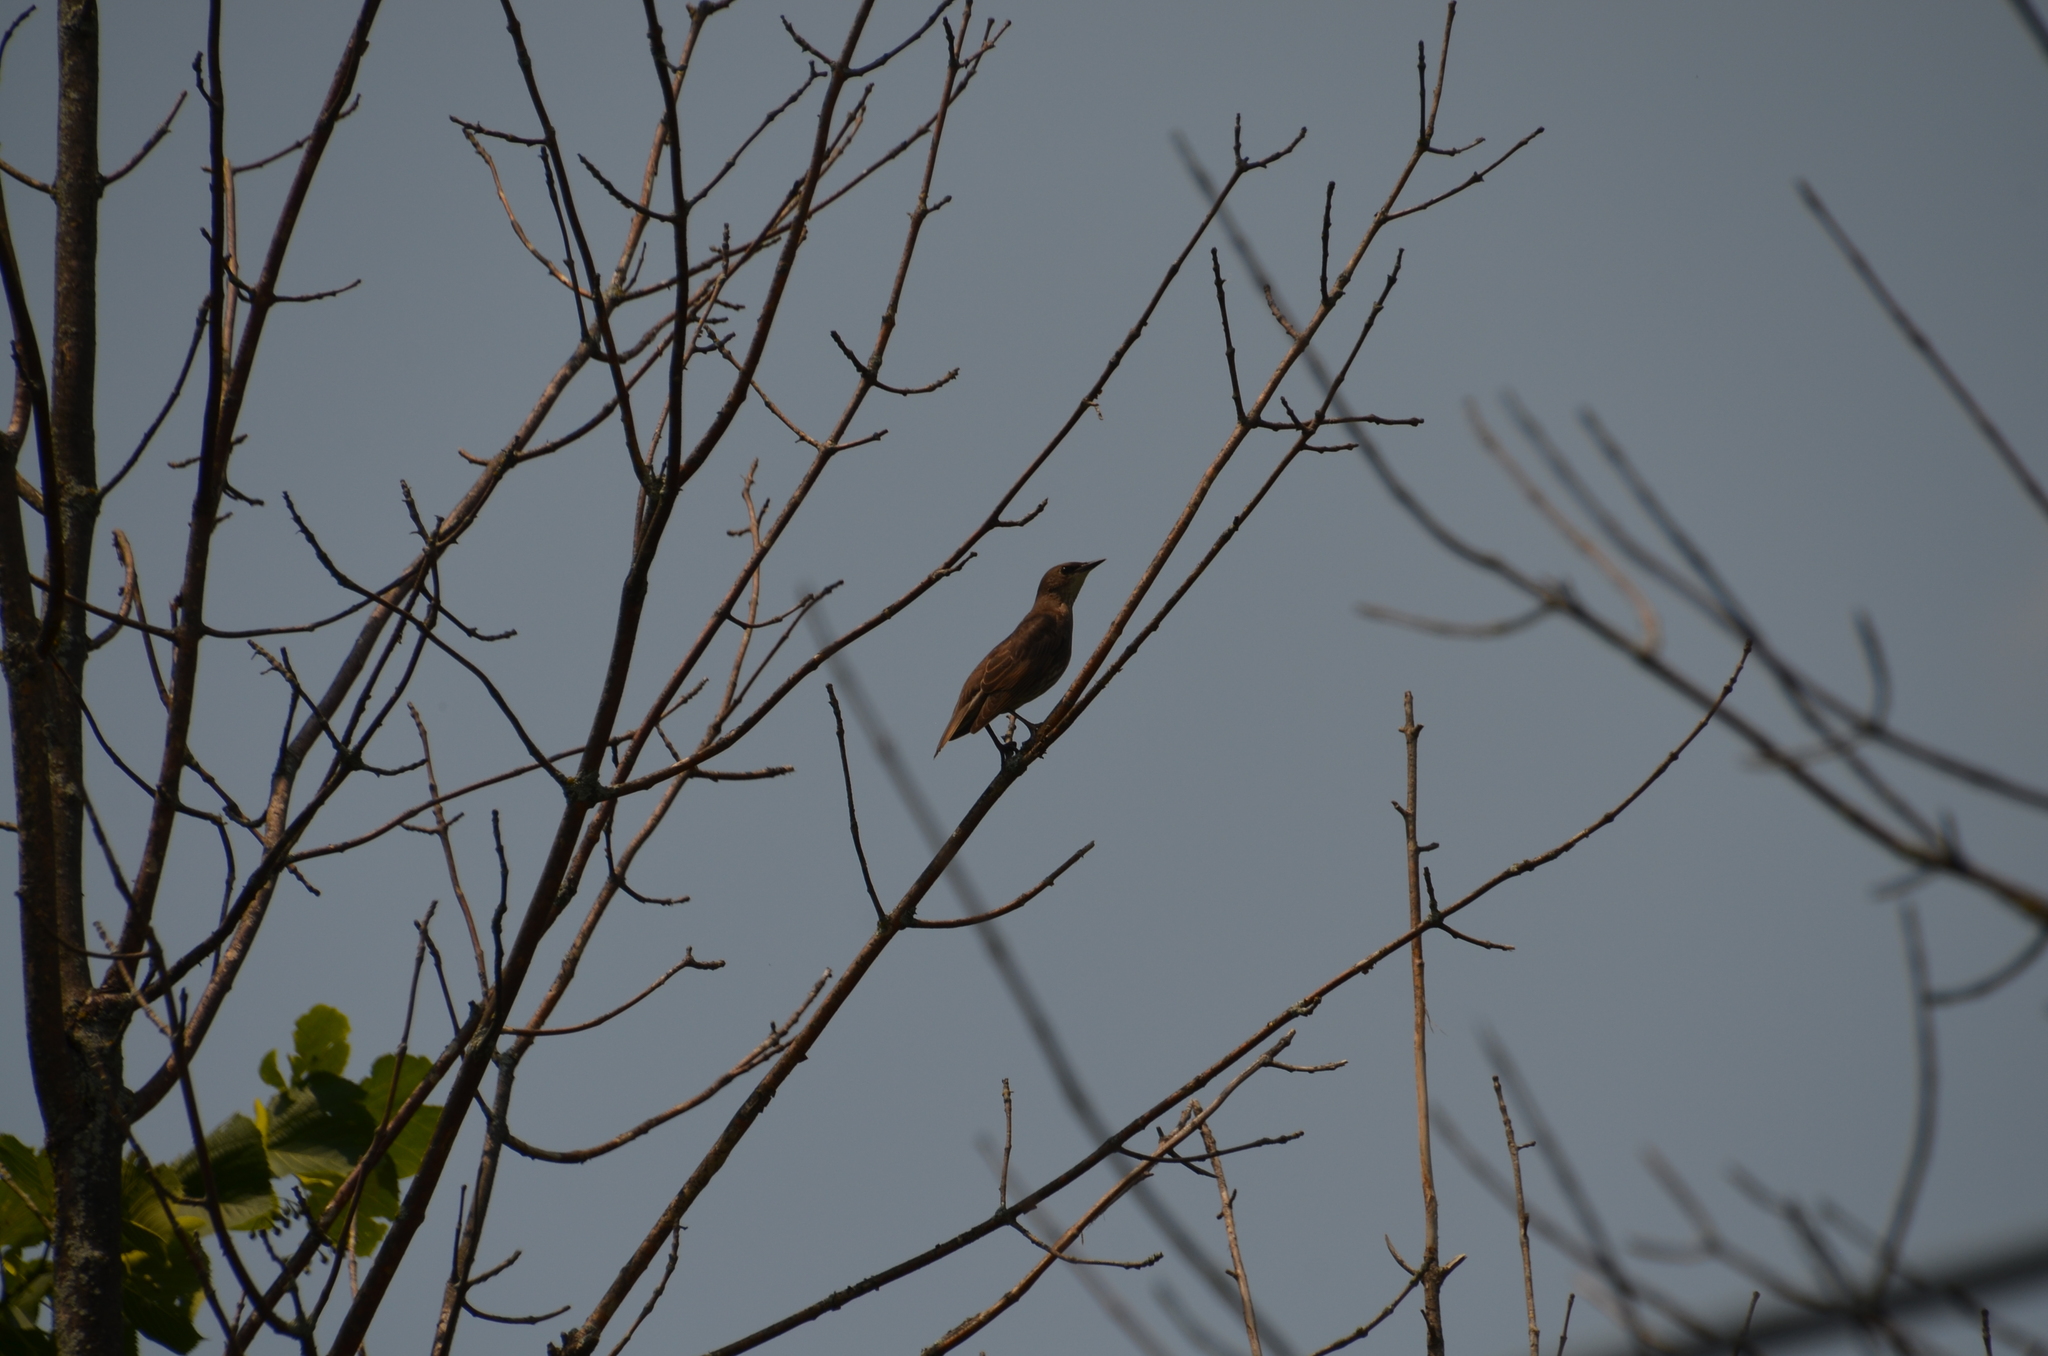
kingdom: Animalia
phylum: Chordata
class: Aves
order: Passeriformes
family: Sturnidae
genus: Sturnus
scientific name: Sturnus vulgaris
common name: Common starling
